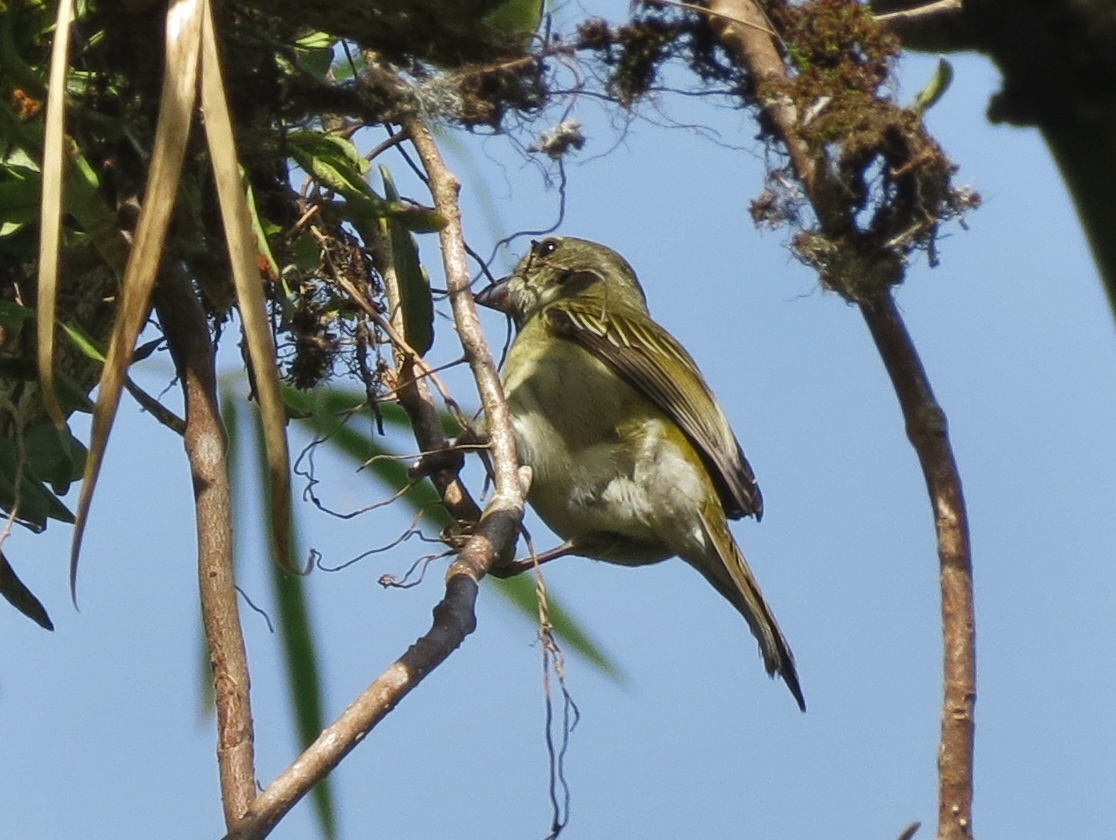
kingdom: Animalia
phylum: Chordata
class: Aves
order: Passeriformes
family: Spindalidae
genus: Spindalis
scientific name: Spindalis portoricensis
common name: Puerto rican spindalis
